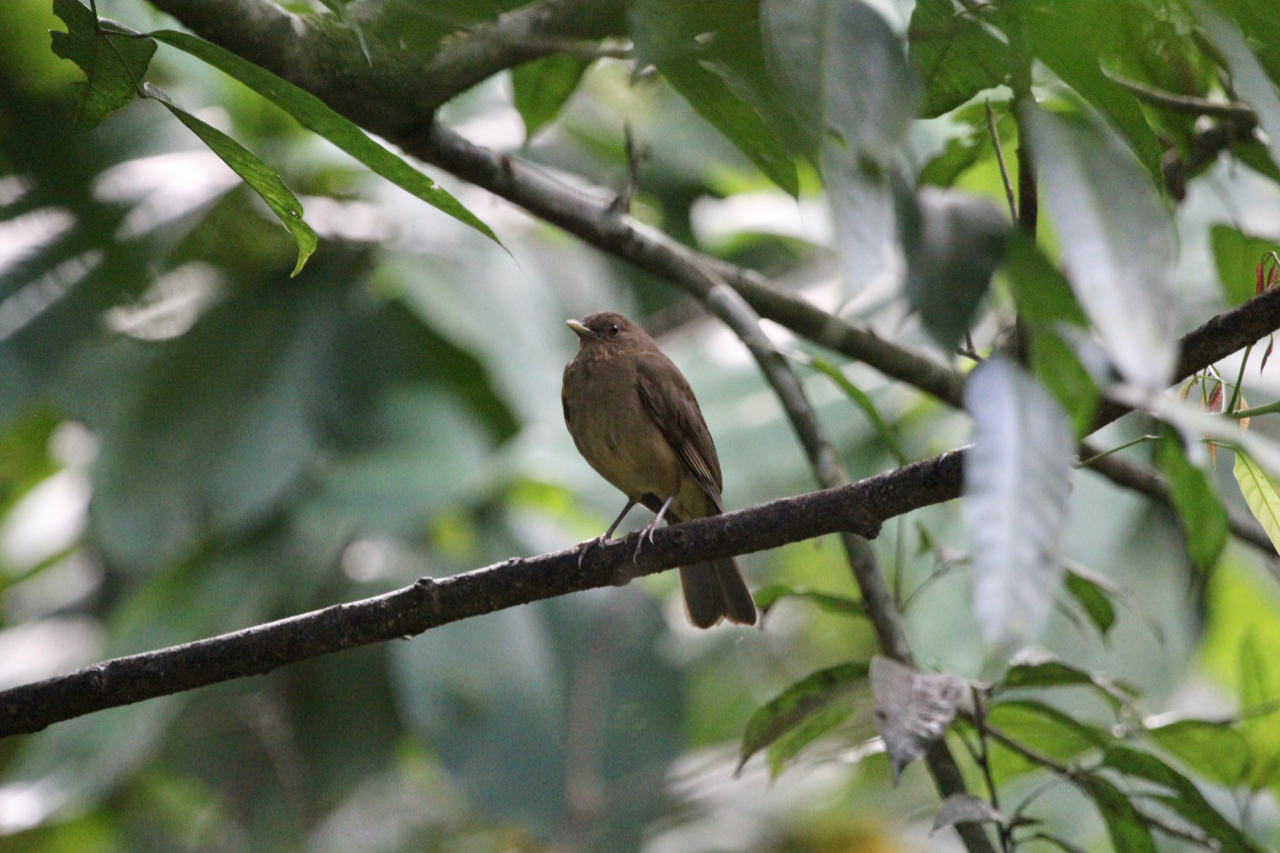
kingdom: Animalia
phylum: Chordata
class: Aves
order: Passeriformes
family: Turdidae
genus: Turdus
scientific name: Turdus grayi
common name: Clay-colored thrush
